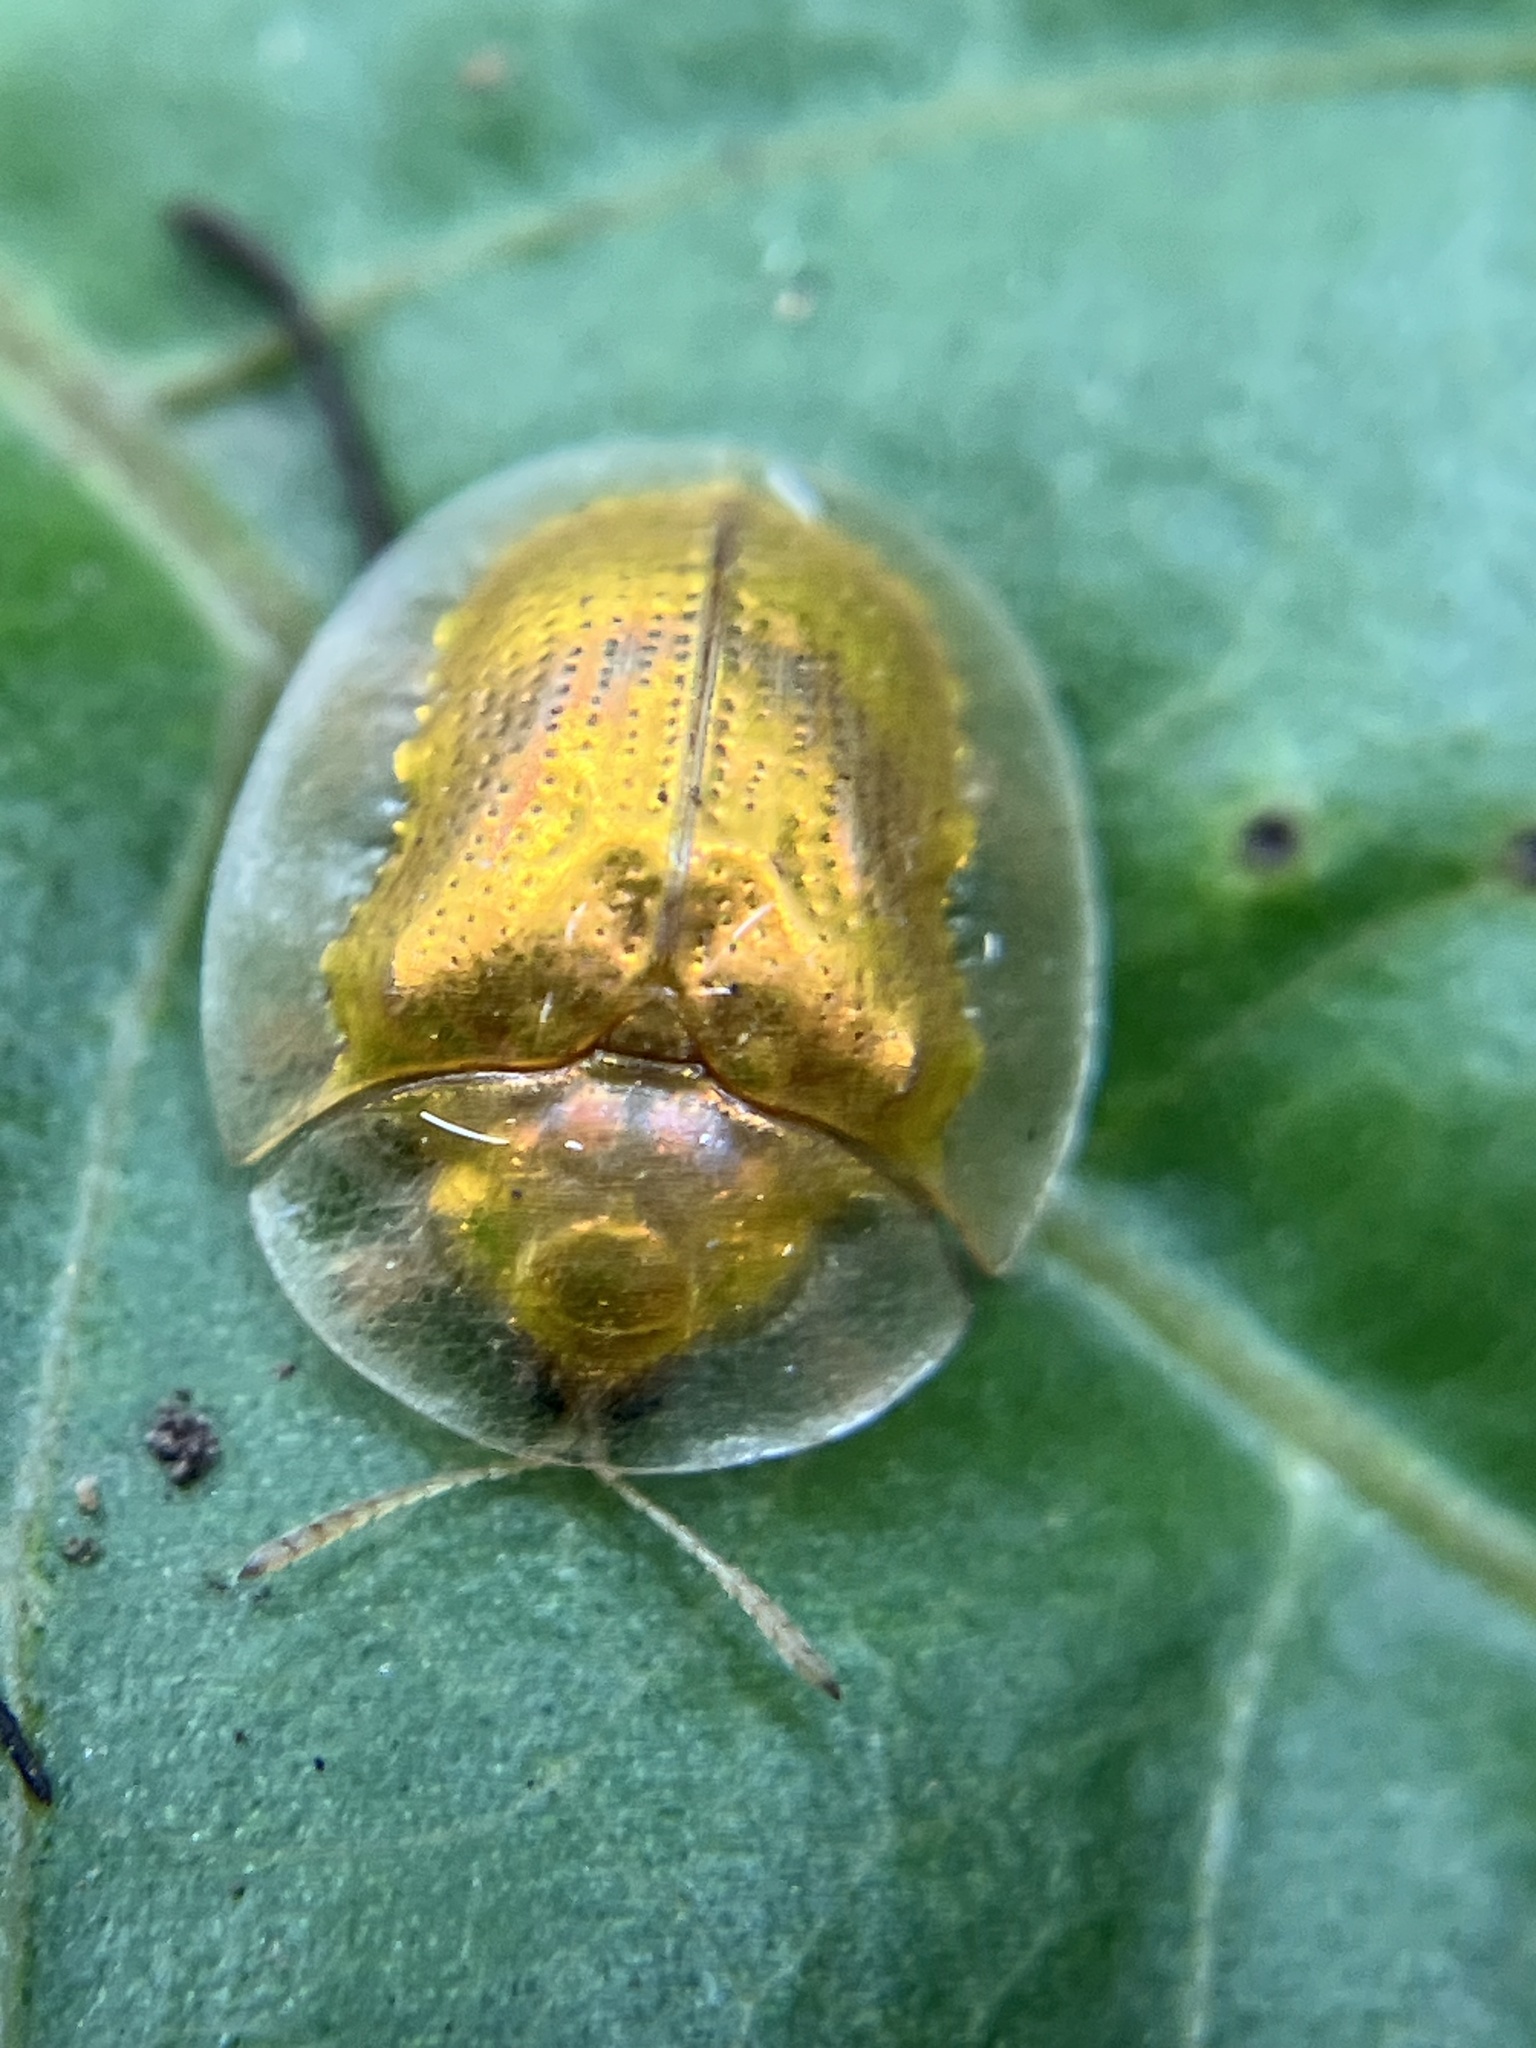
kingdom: Animalia
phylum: Arthropoda
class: Insecta
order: Coleoptera
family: Chrysomelidae
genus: Cassida
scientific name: Cassida cognobilis
